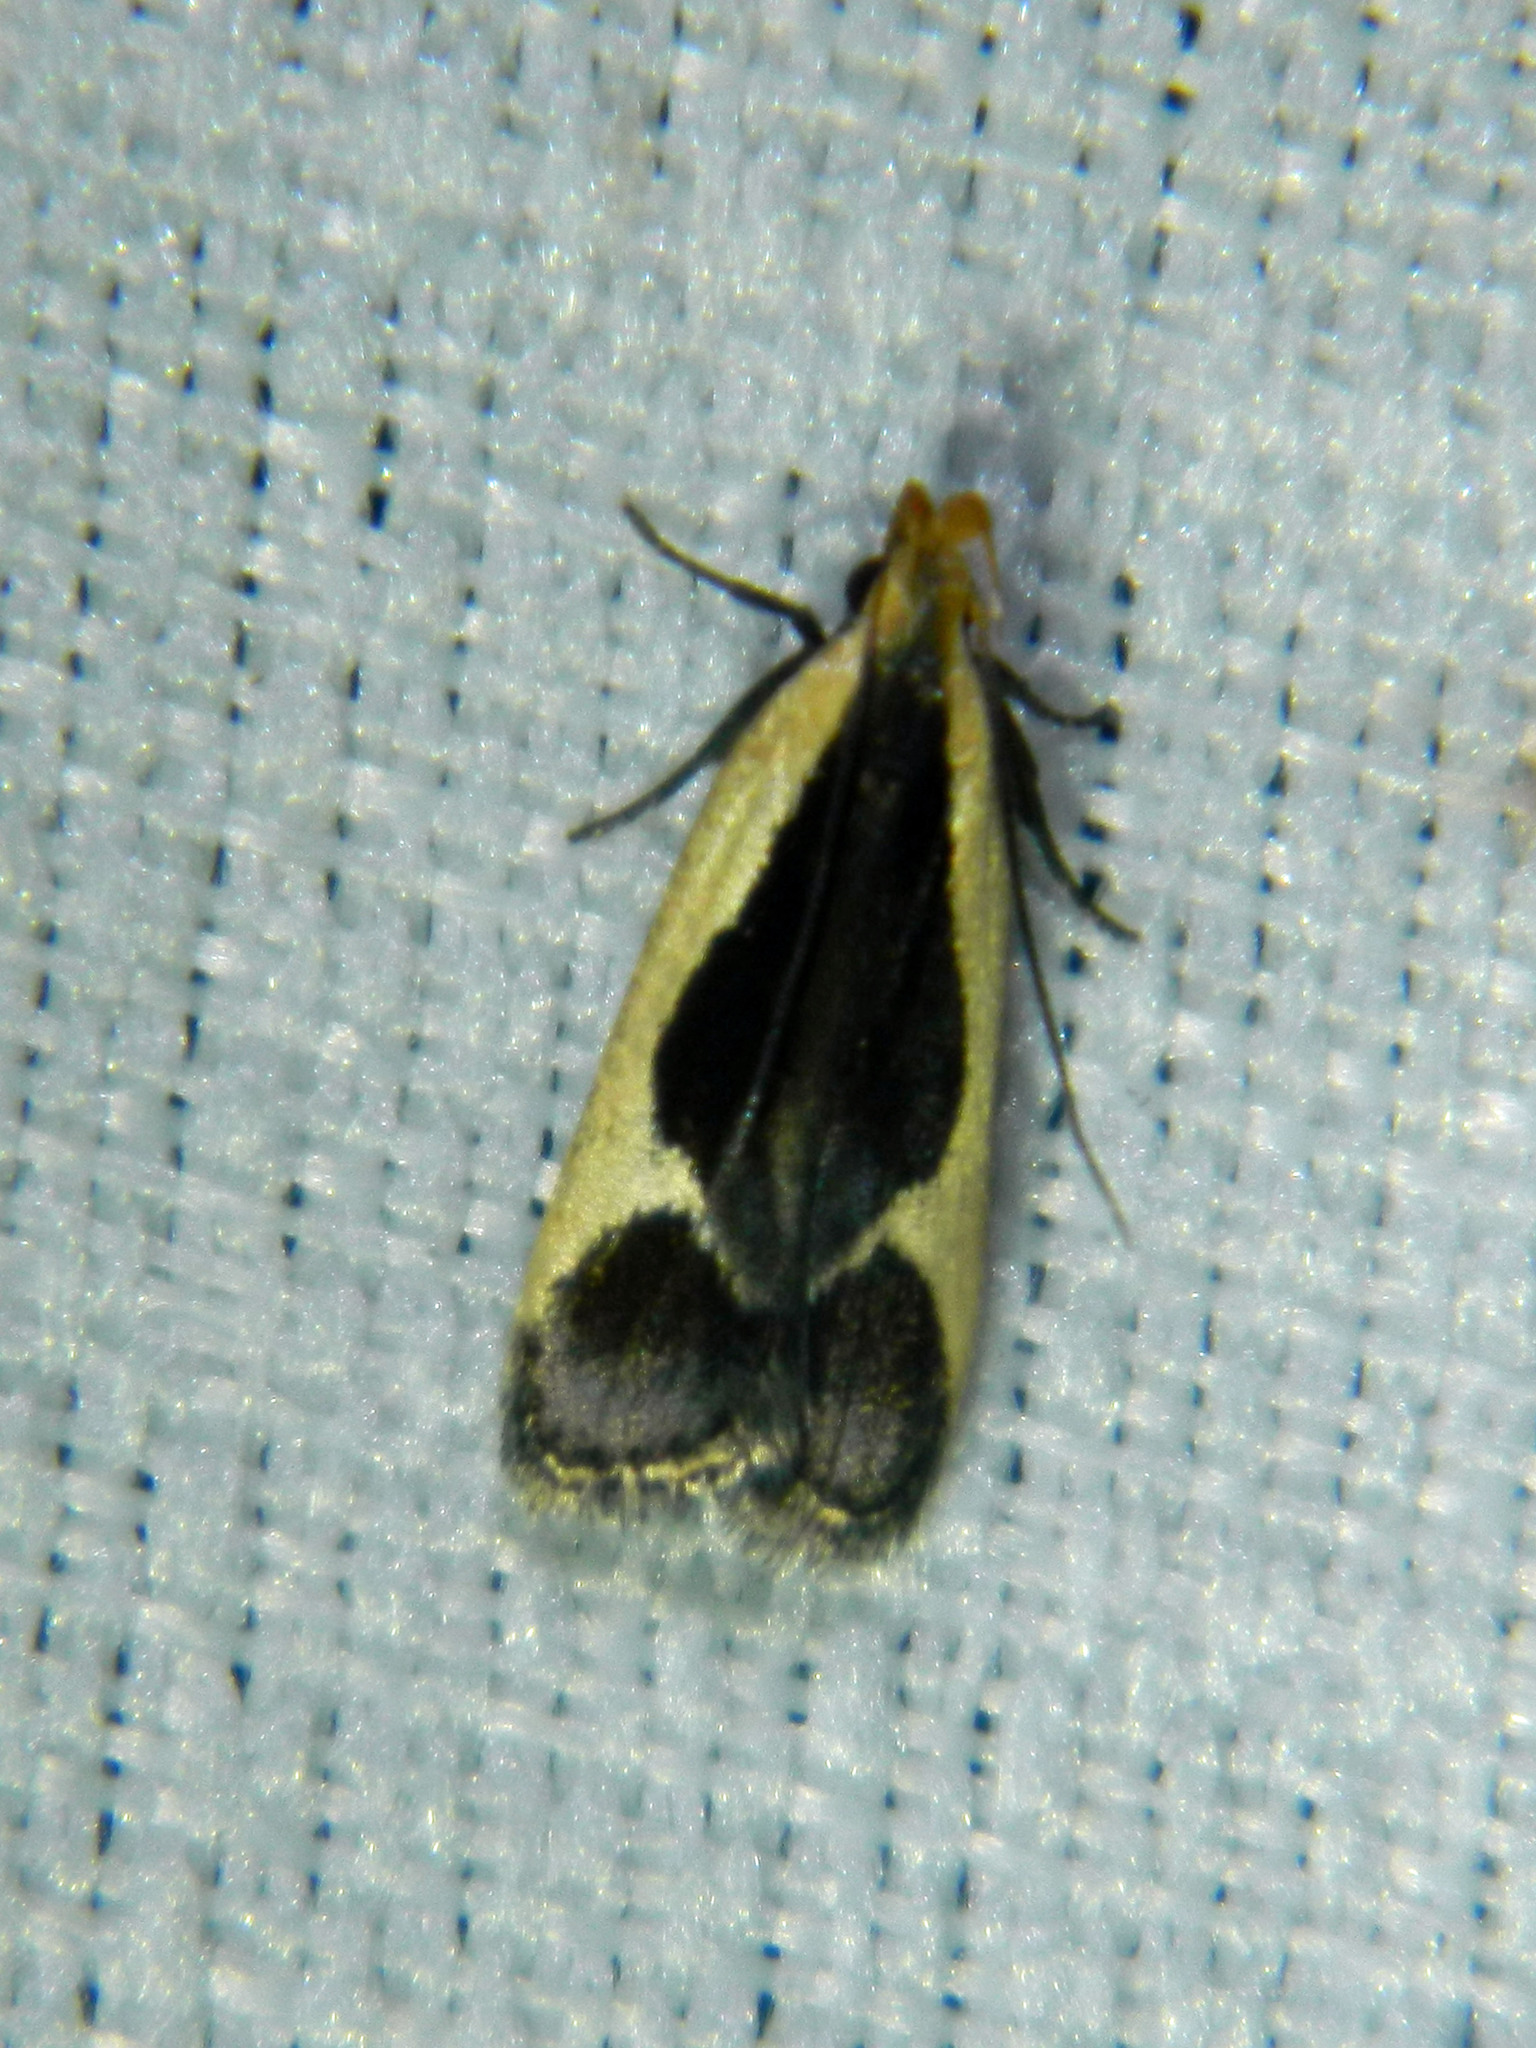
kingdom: Animalia
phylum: Arthropoda
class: Insecta
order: Lepidoptera
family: Gelechiidae
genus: Dichomeris
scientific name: Dichomeris flavocostella
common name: Cream-edged dichomeris moth
